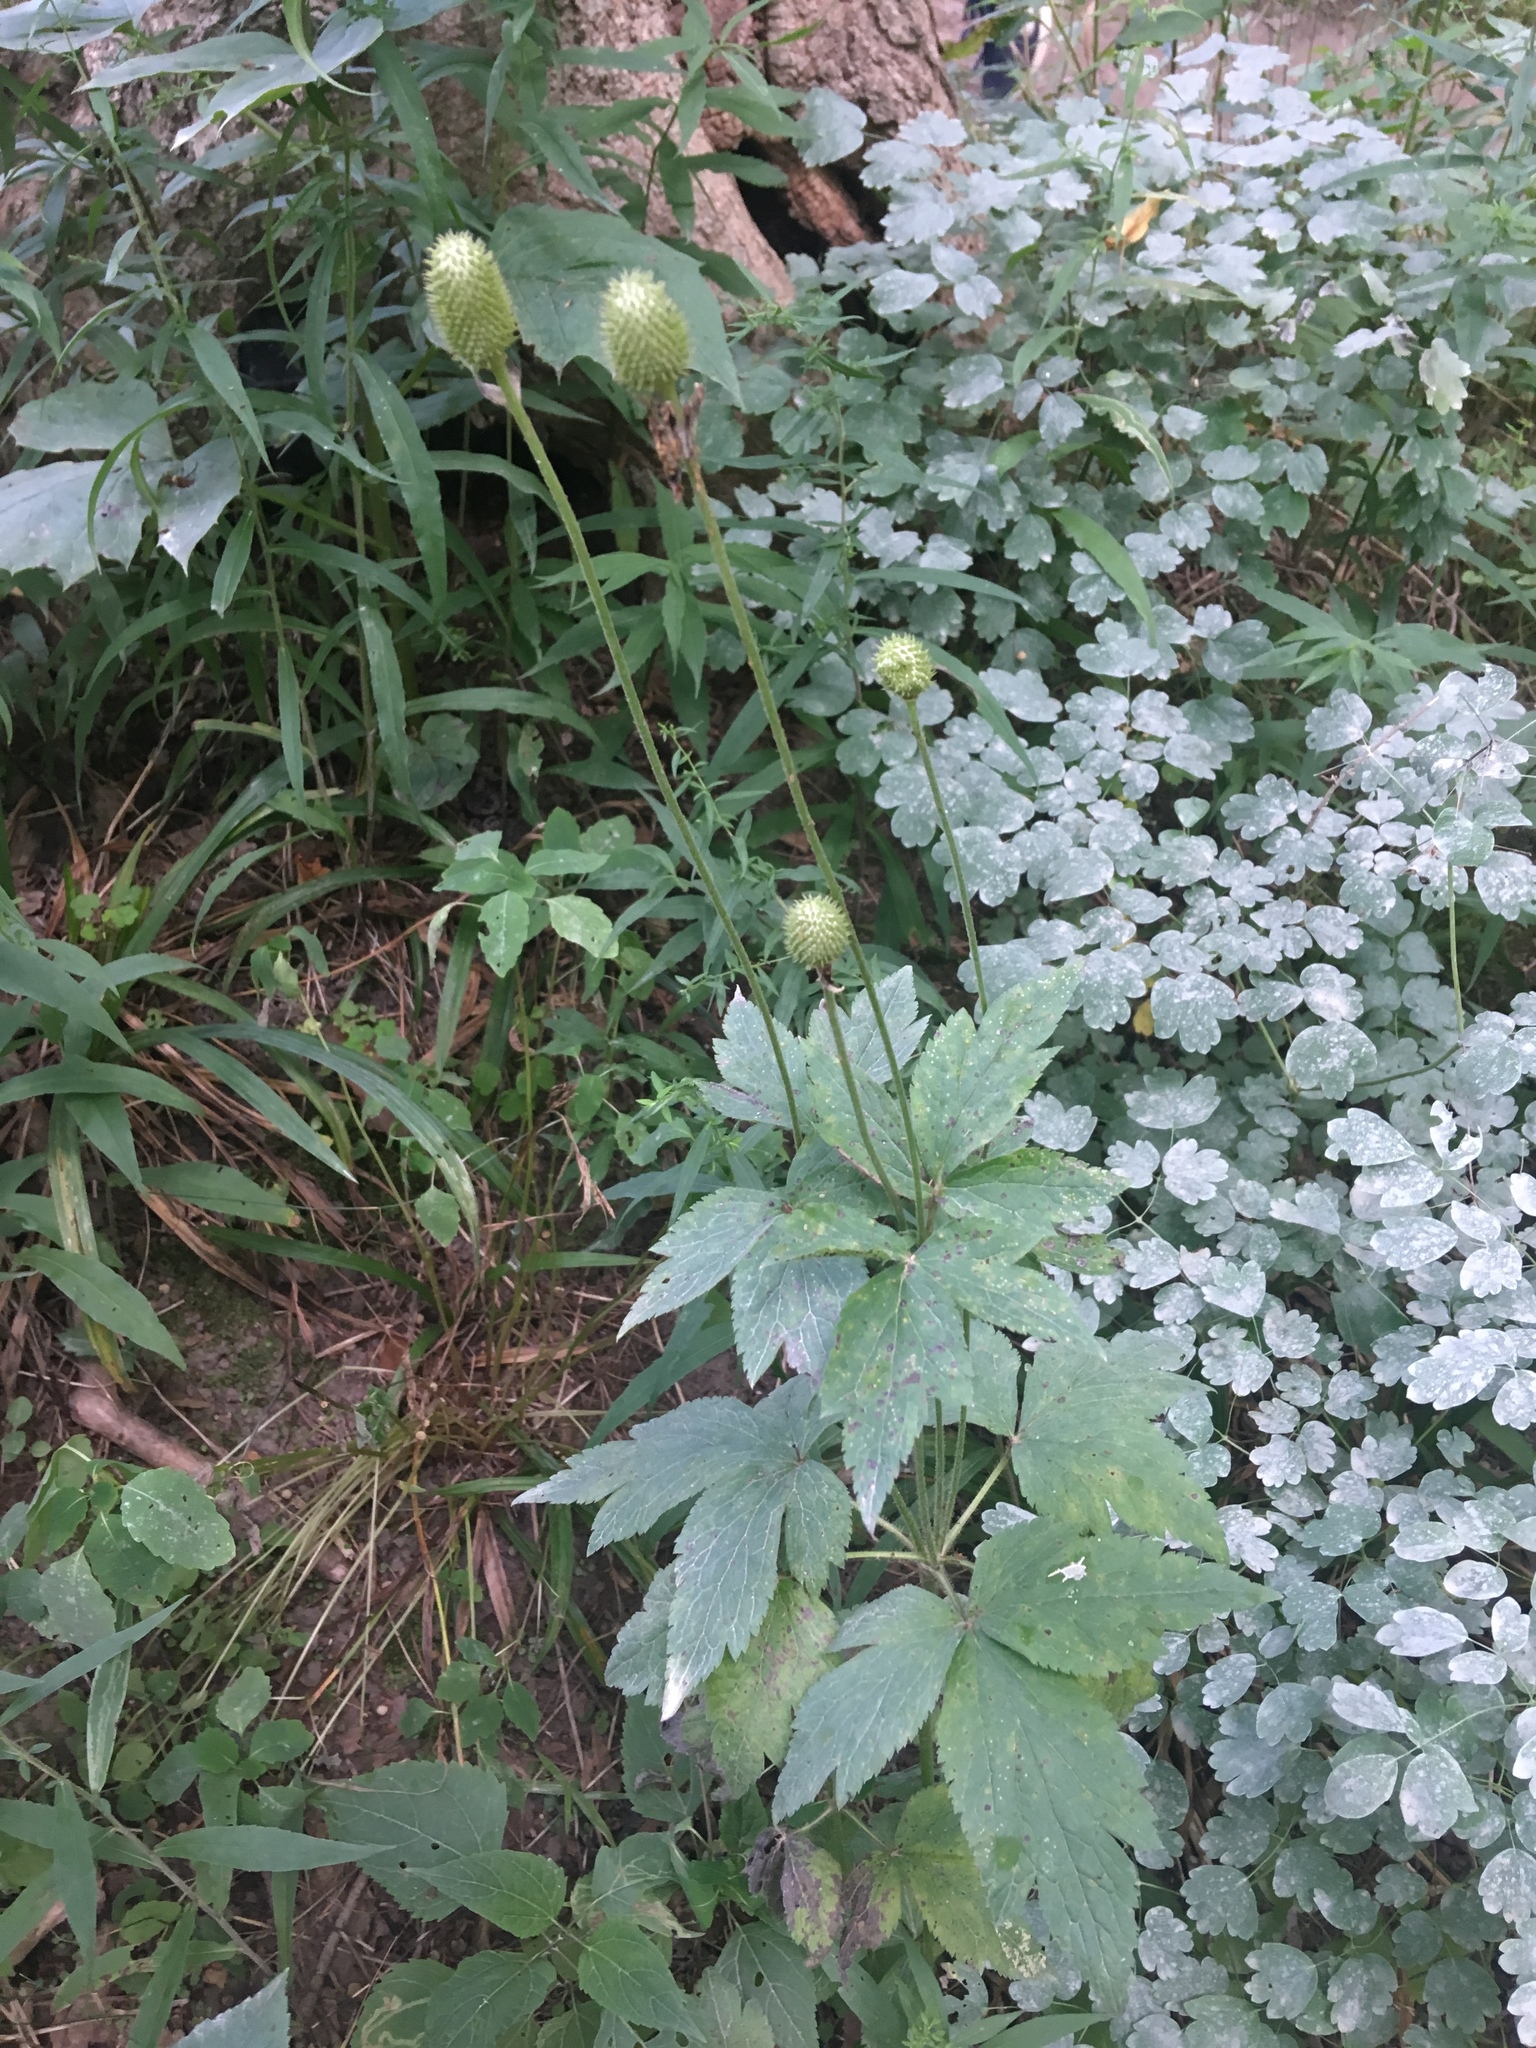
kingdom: Plantae
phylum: Tracheophyta
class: Magnoliopsida
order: Ranunculales
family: Ranunculaceae
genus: Anemone
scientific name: Anemone virginiana
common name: Tall anemone
